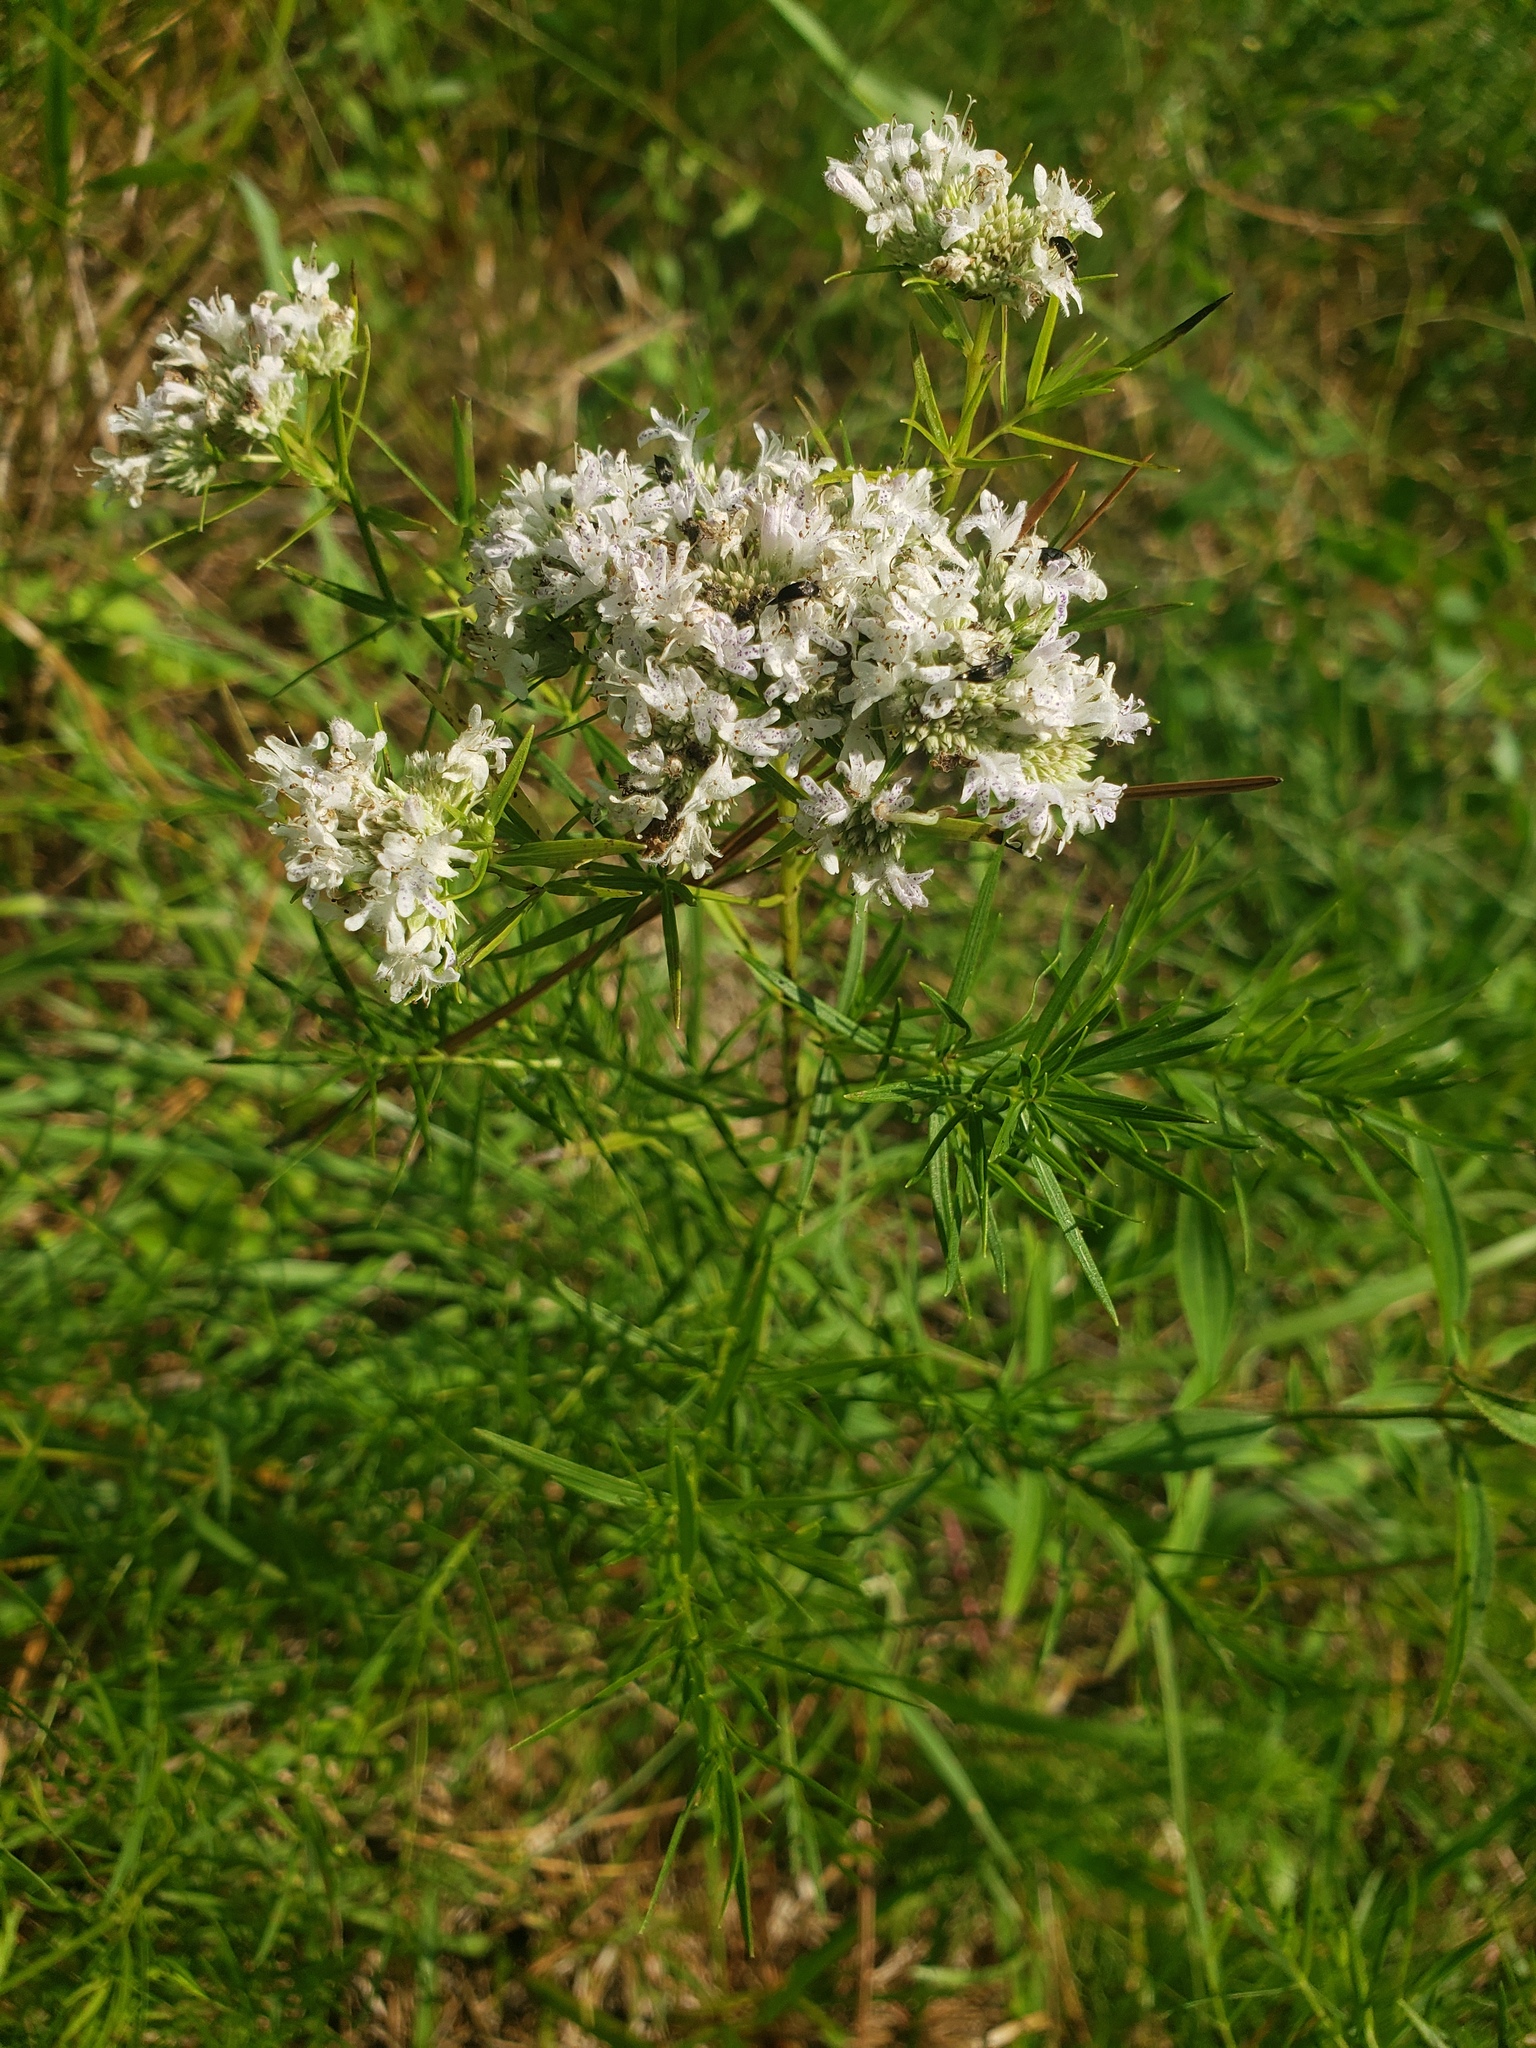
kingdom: Plantae
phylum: Tracheophyta
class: Magnoliopsida
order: Lamiales
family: Lamiaceae
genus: Pycnanthemum
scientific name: Pycnanthemum tenuifolium
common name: Narrow-leaf mountain-mint
